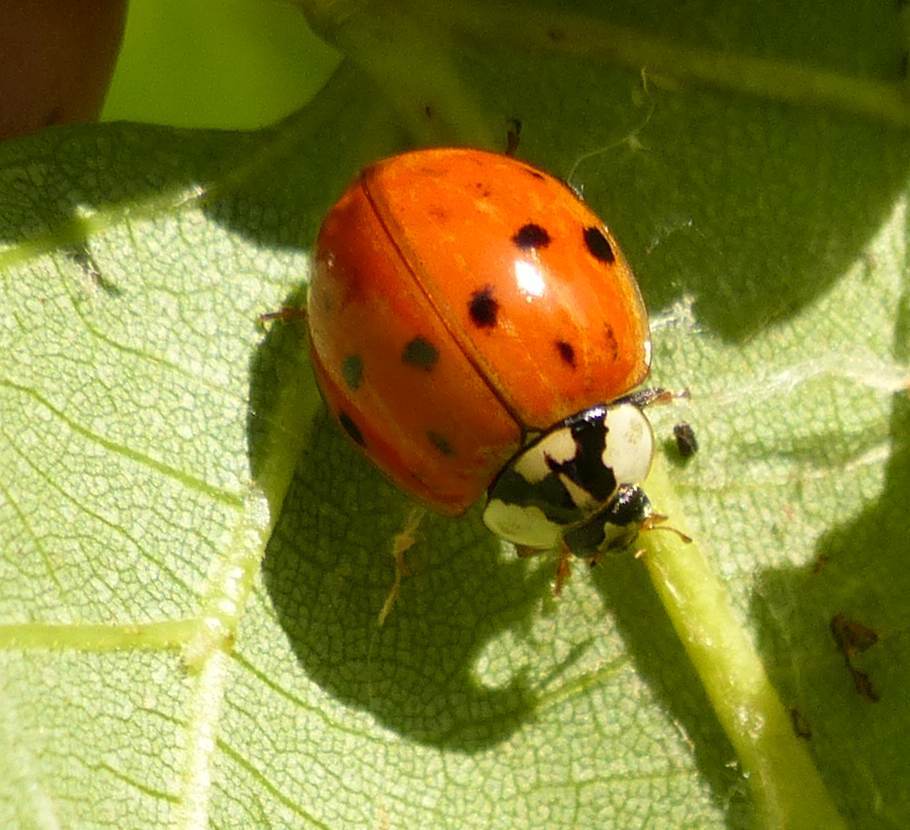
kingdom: Animalia
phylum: Arthropoda
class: Insecta
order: Coleoptera
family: Coccinellidae
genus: Harmonia
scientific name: Harmonia axyridis
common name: Harlequin ladybird
